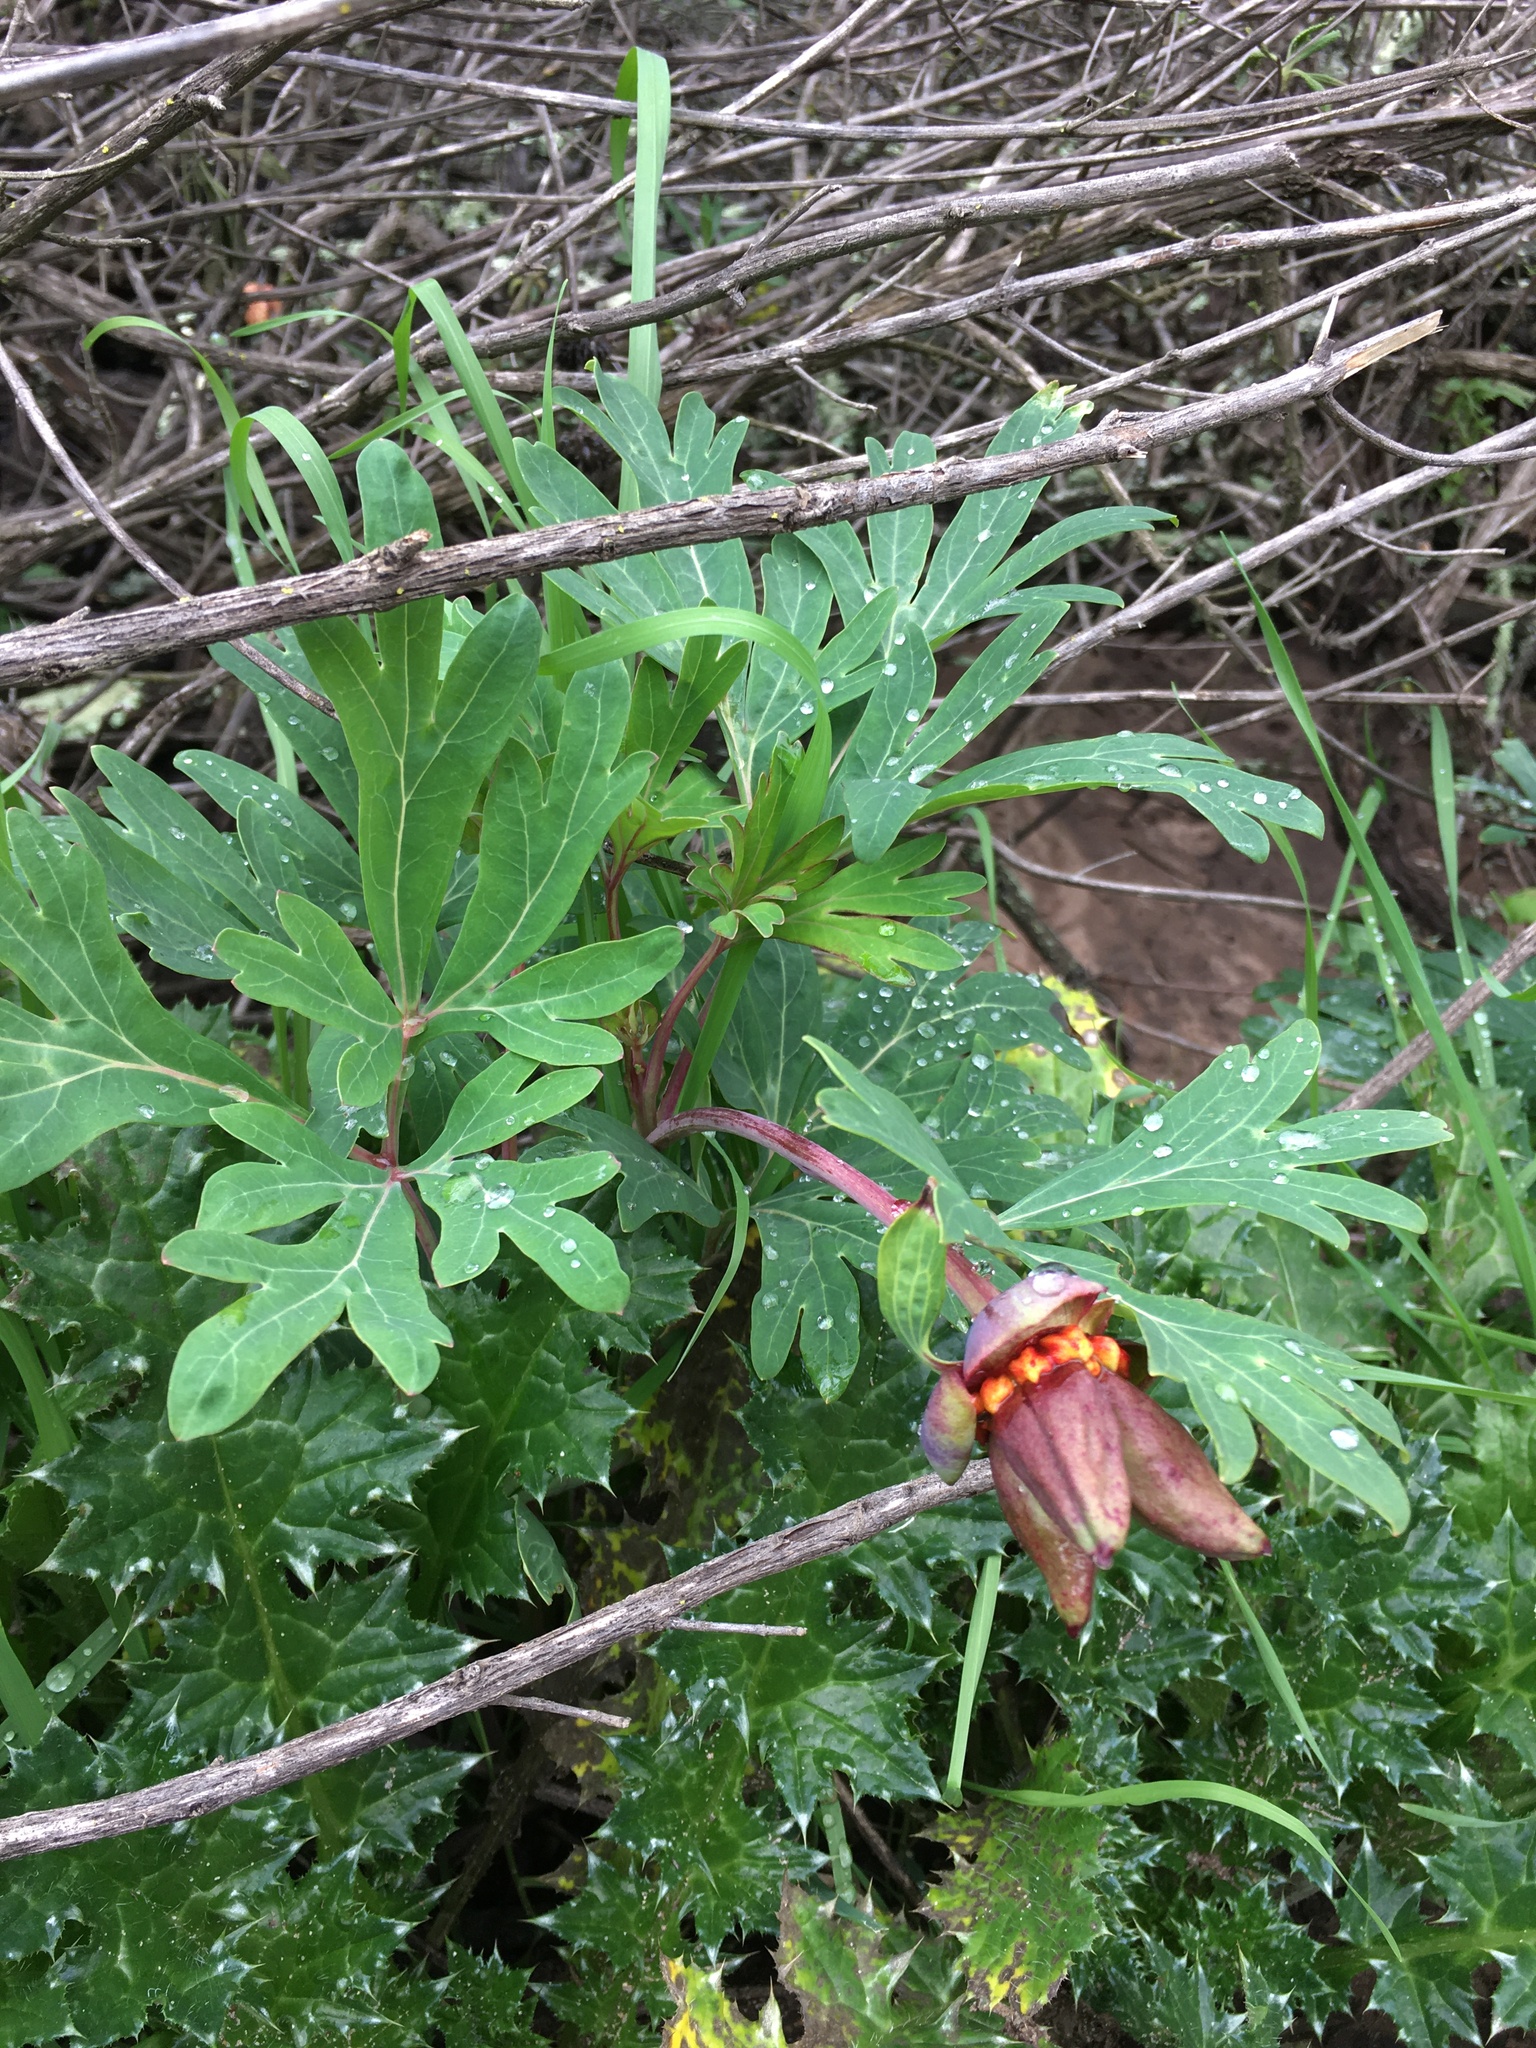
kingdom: Plantae
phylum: Tracheophyta
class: Magnoliopsida
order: Saxifragales
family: Paeoniaceae
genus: Paeonia
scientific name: Paeonia californica
